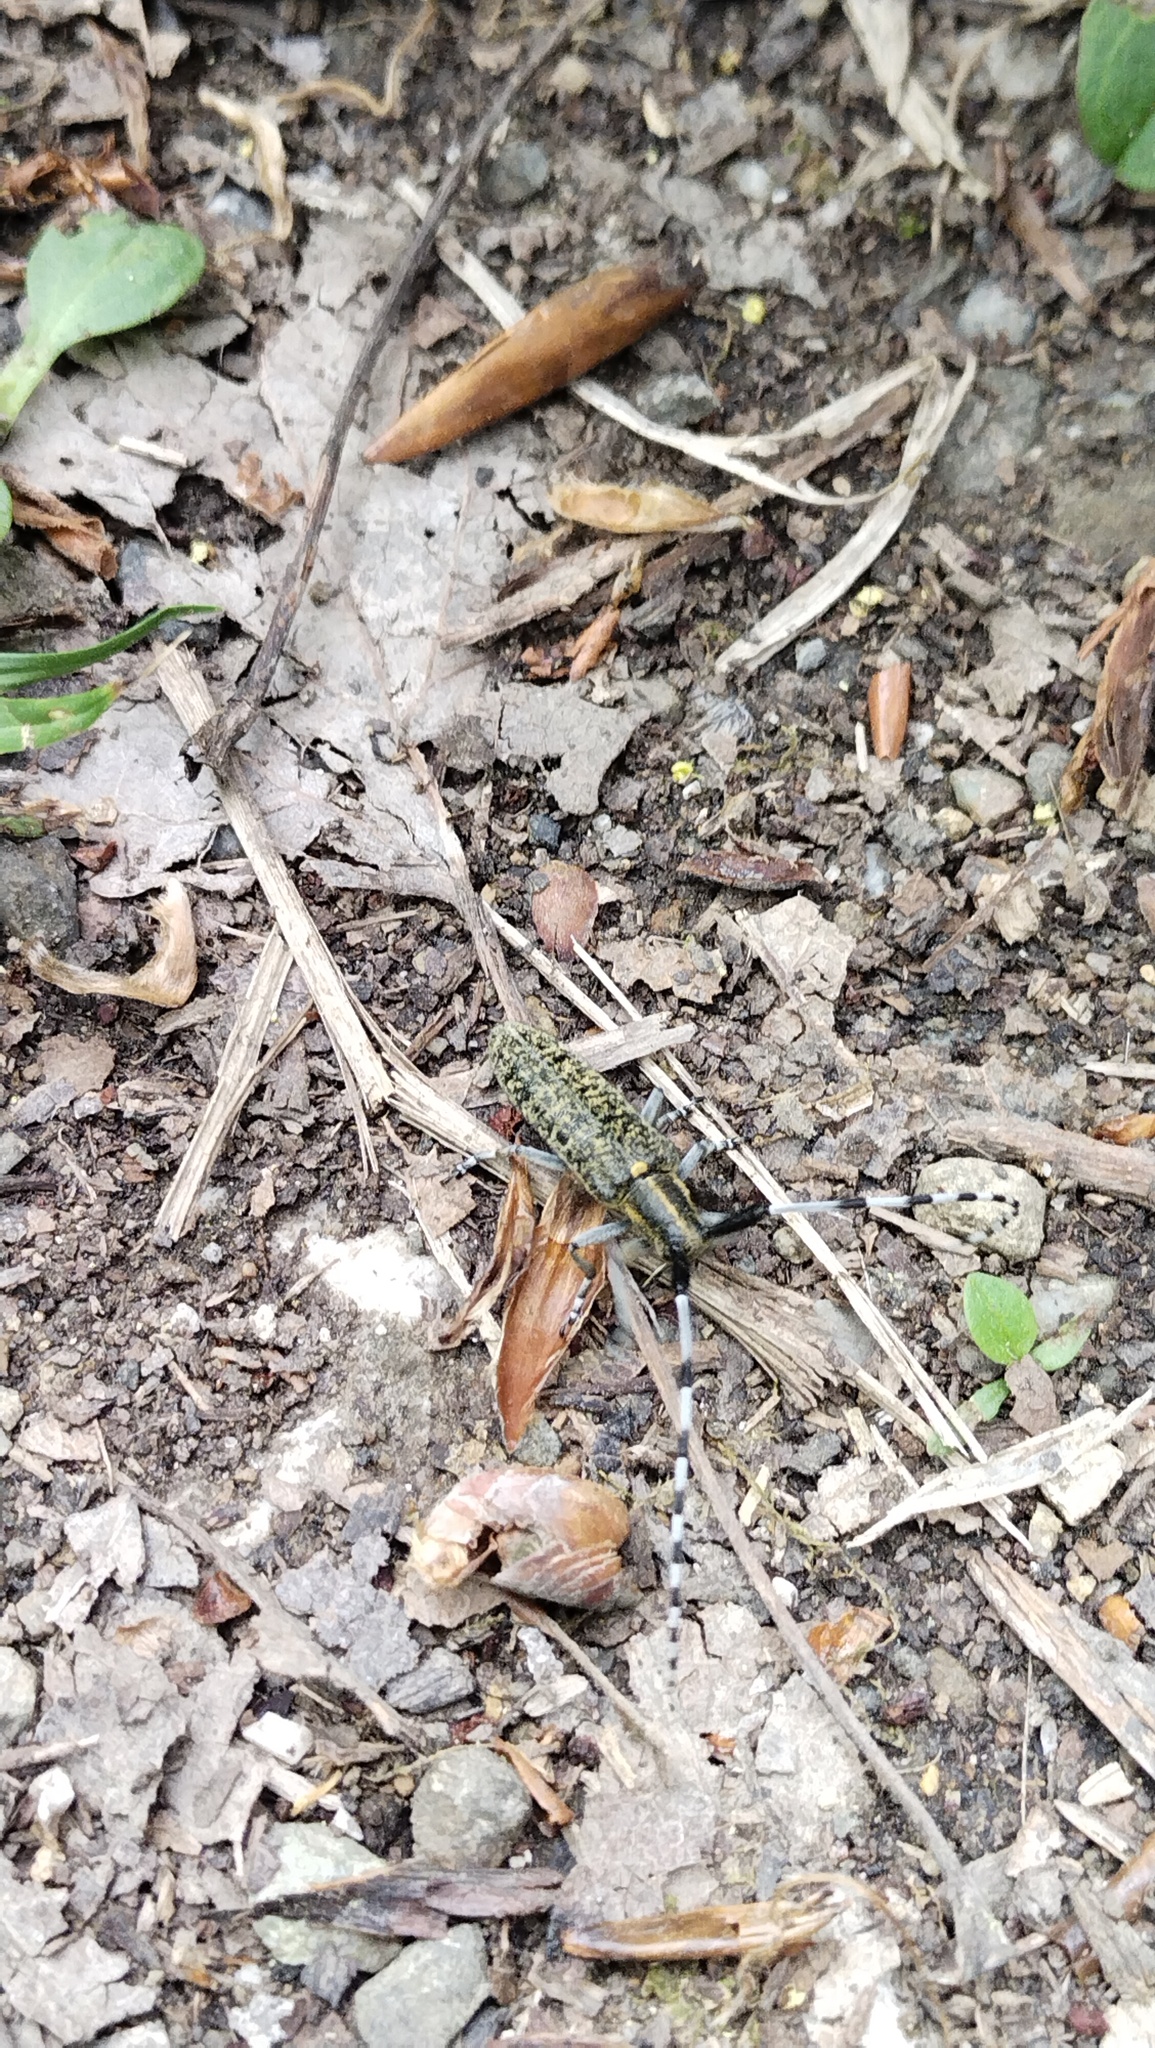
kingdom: Animalia
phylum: Arthropoda
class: Insecta
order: Coleoptera
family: Cerambycidae
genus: Agapanthia
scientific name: Agapanthia daurica
